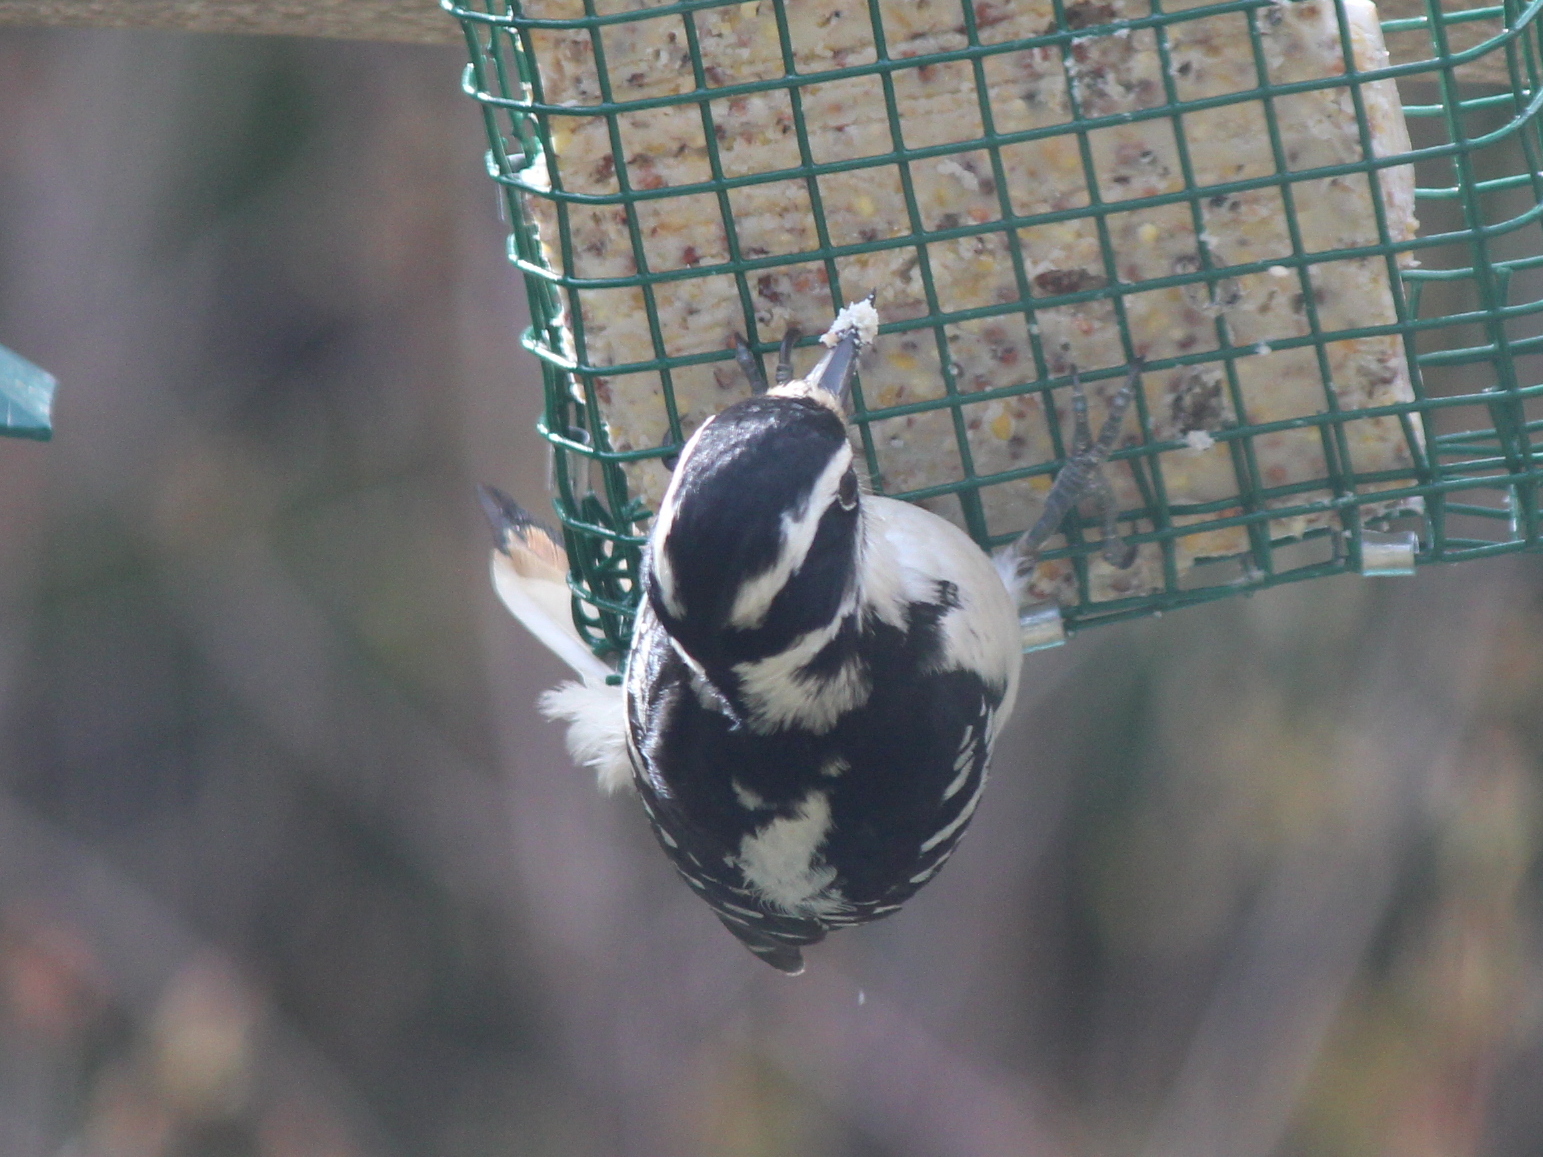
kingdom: Animalia
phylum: Chordata
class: Aves
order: Piciformes
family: Picidae
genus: Leuconotopicus
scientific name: Leuconotopicus villosus
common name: Hairy woodpecker
